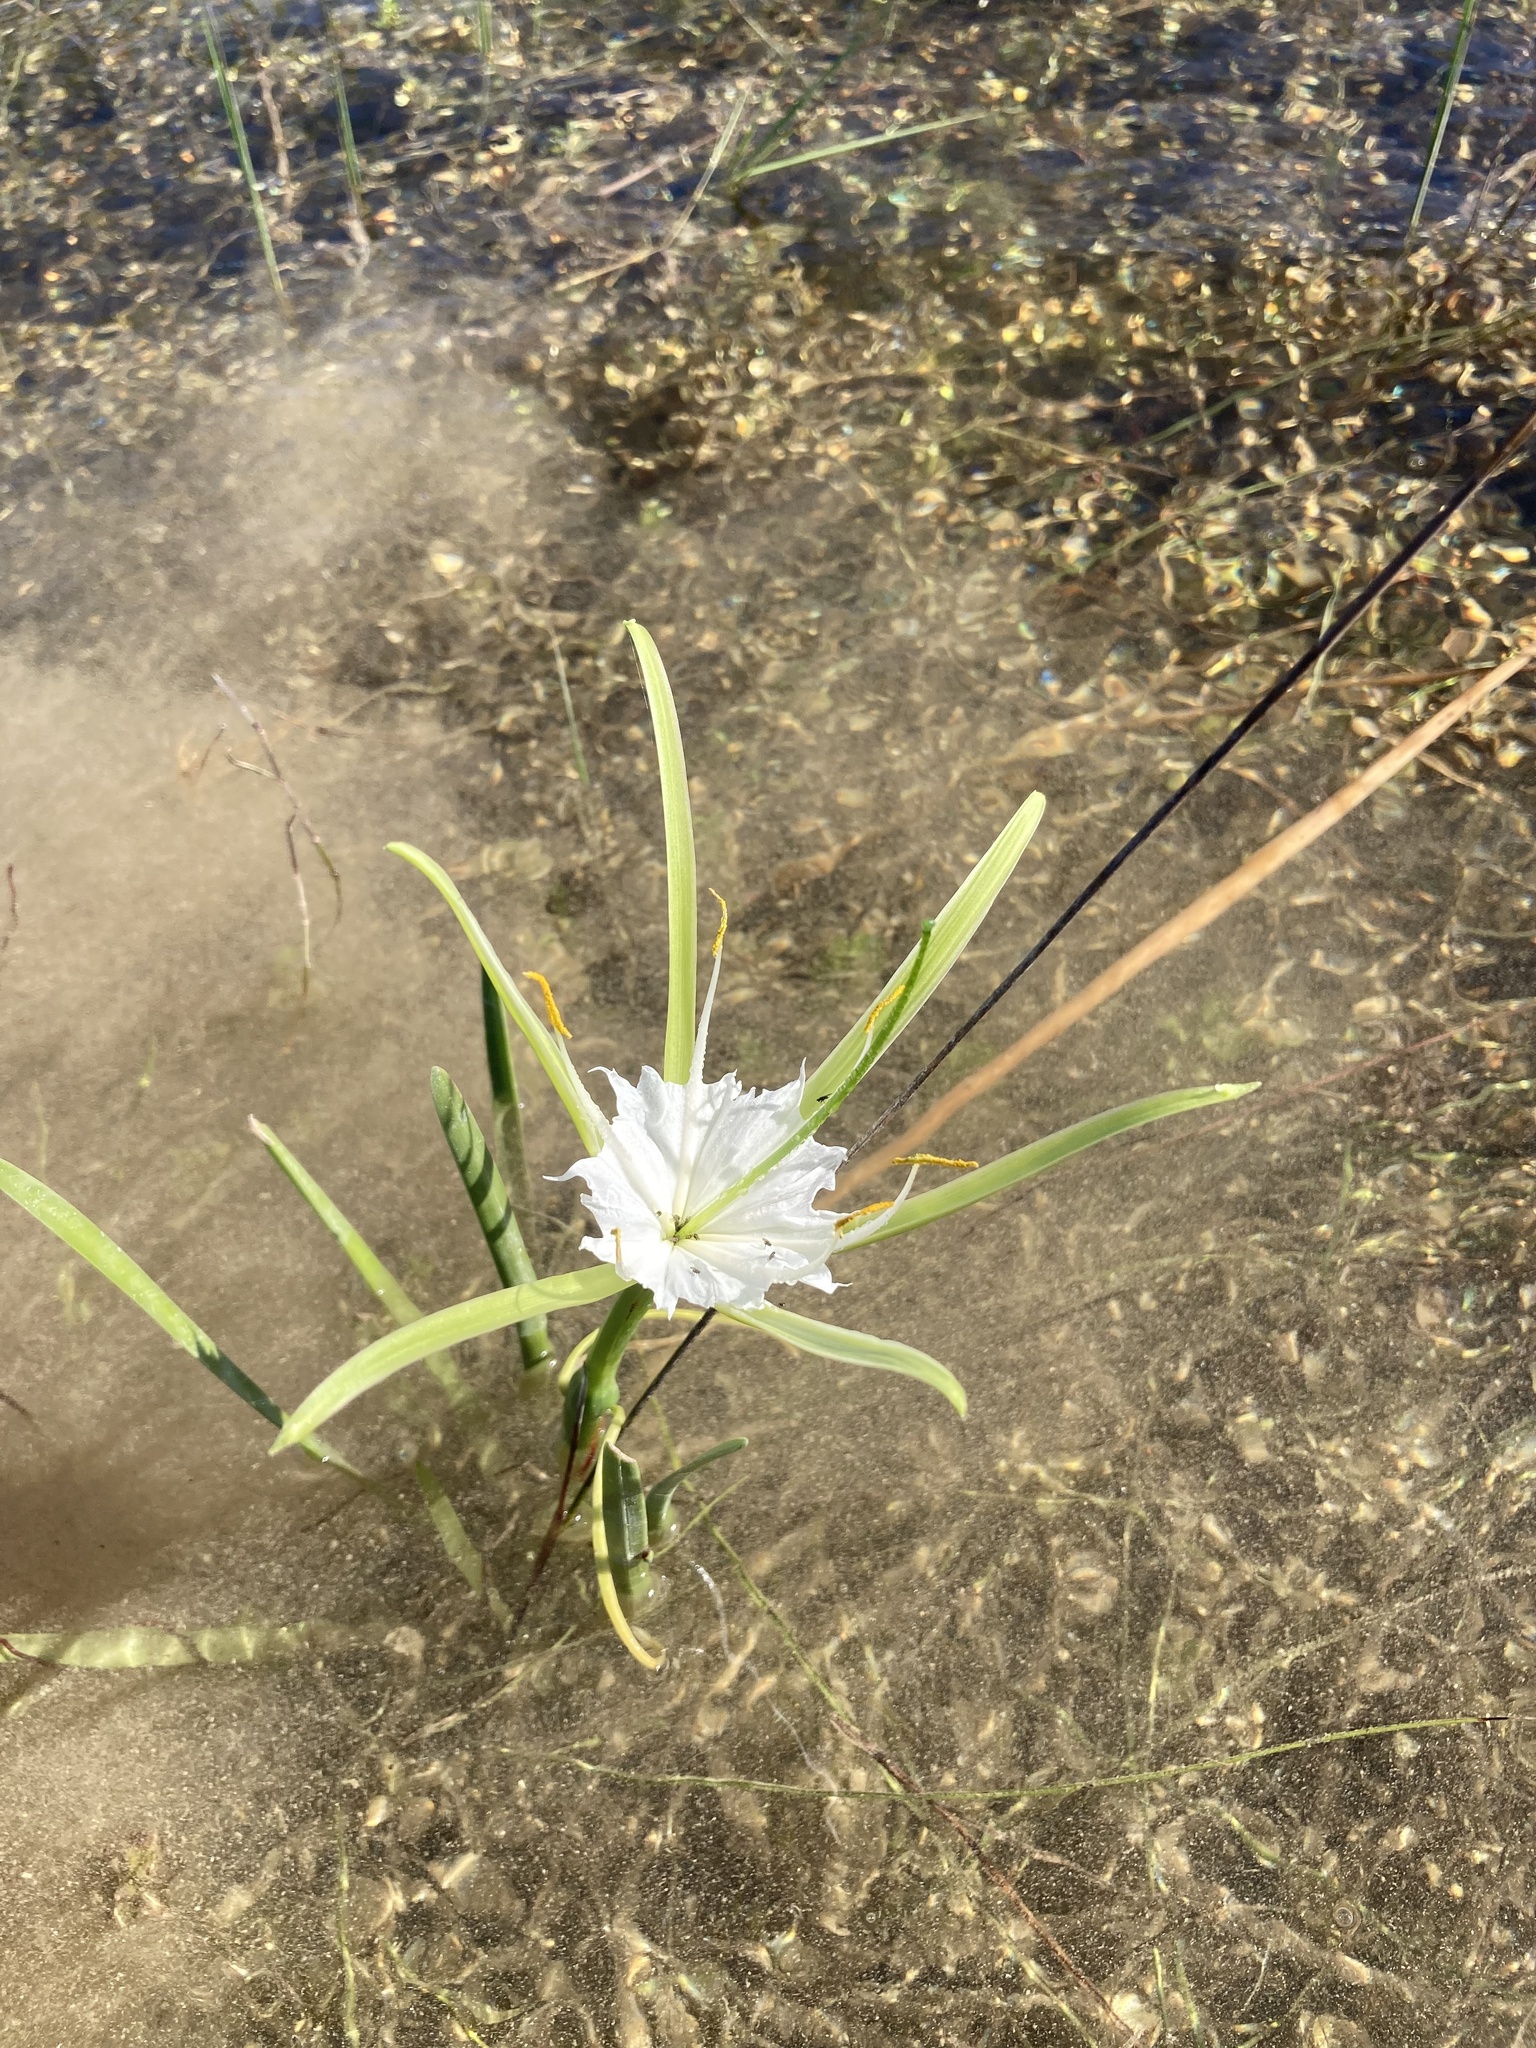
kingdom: Plantae
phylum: Tracheophyta
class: Liliopsida
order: Asparagales
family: Amaryllidaceae
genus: Hymenocallis
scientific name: Hymenocallis palmeri
